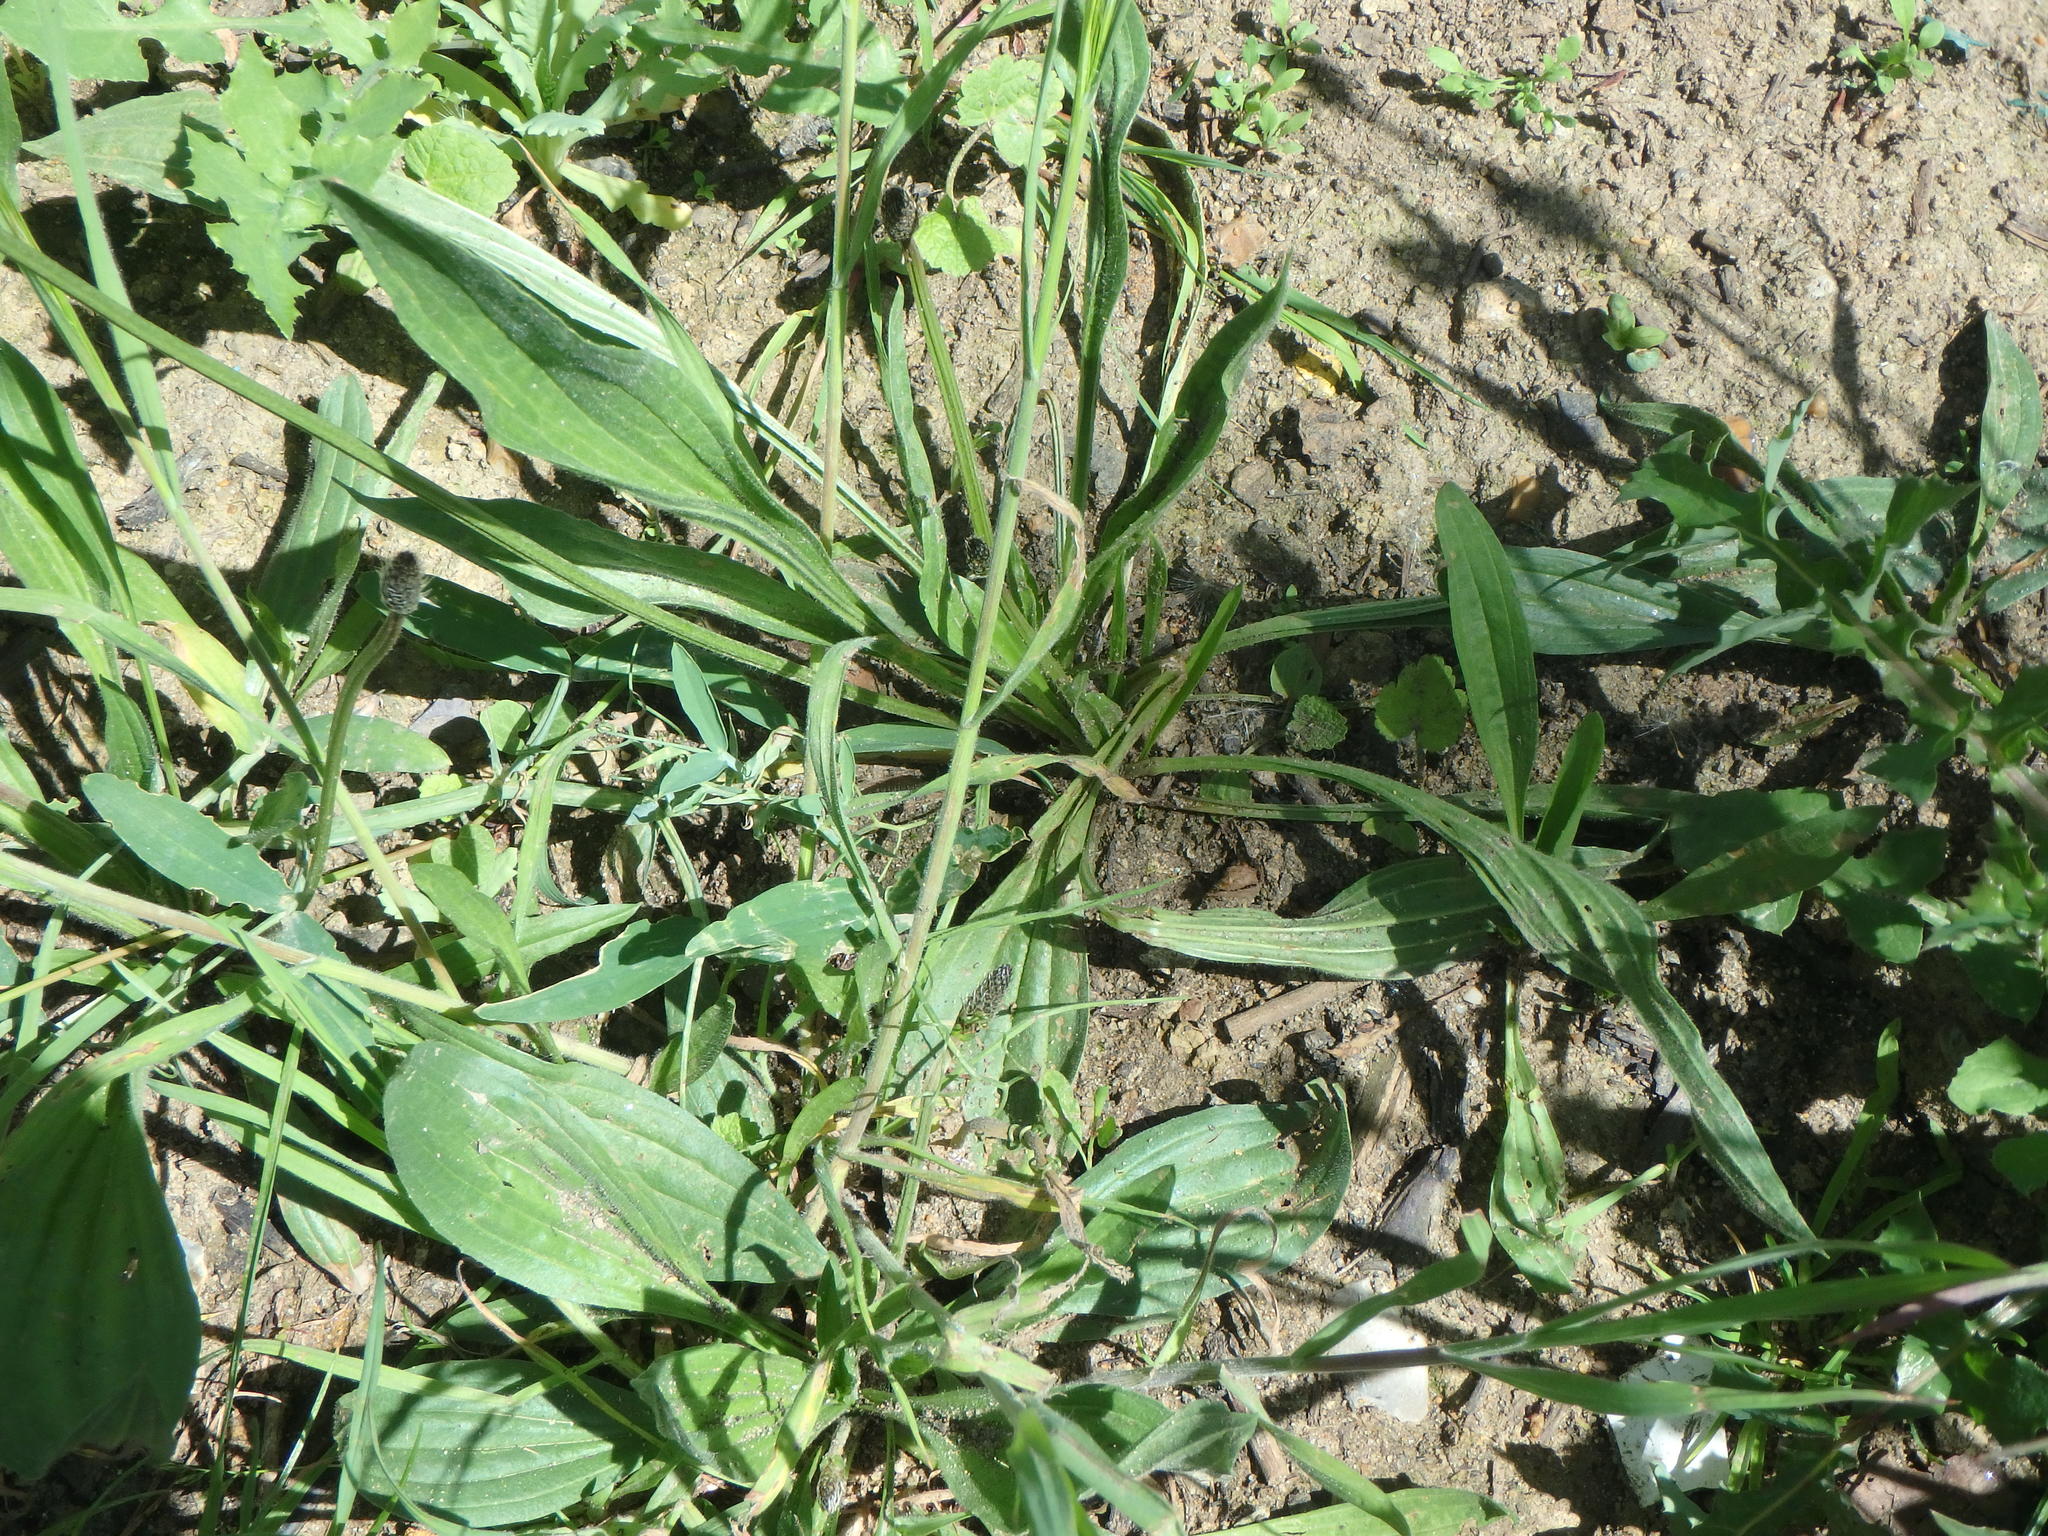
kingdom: Plantae
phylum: Tracheophyta
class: Magnoliopsida
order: Lamiales
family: Plantaginaceae
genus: Plantago
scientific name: Plantago lanceolata
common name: Ribwort plantain
